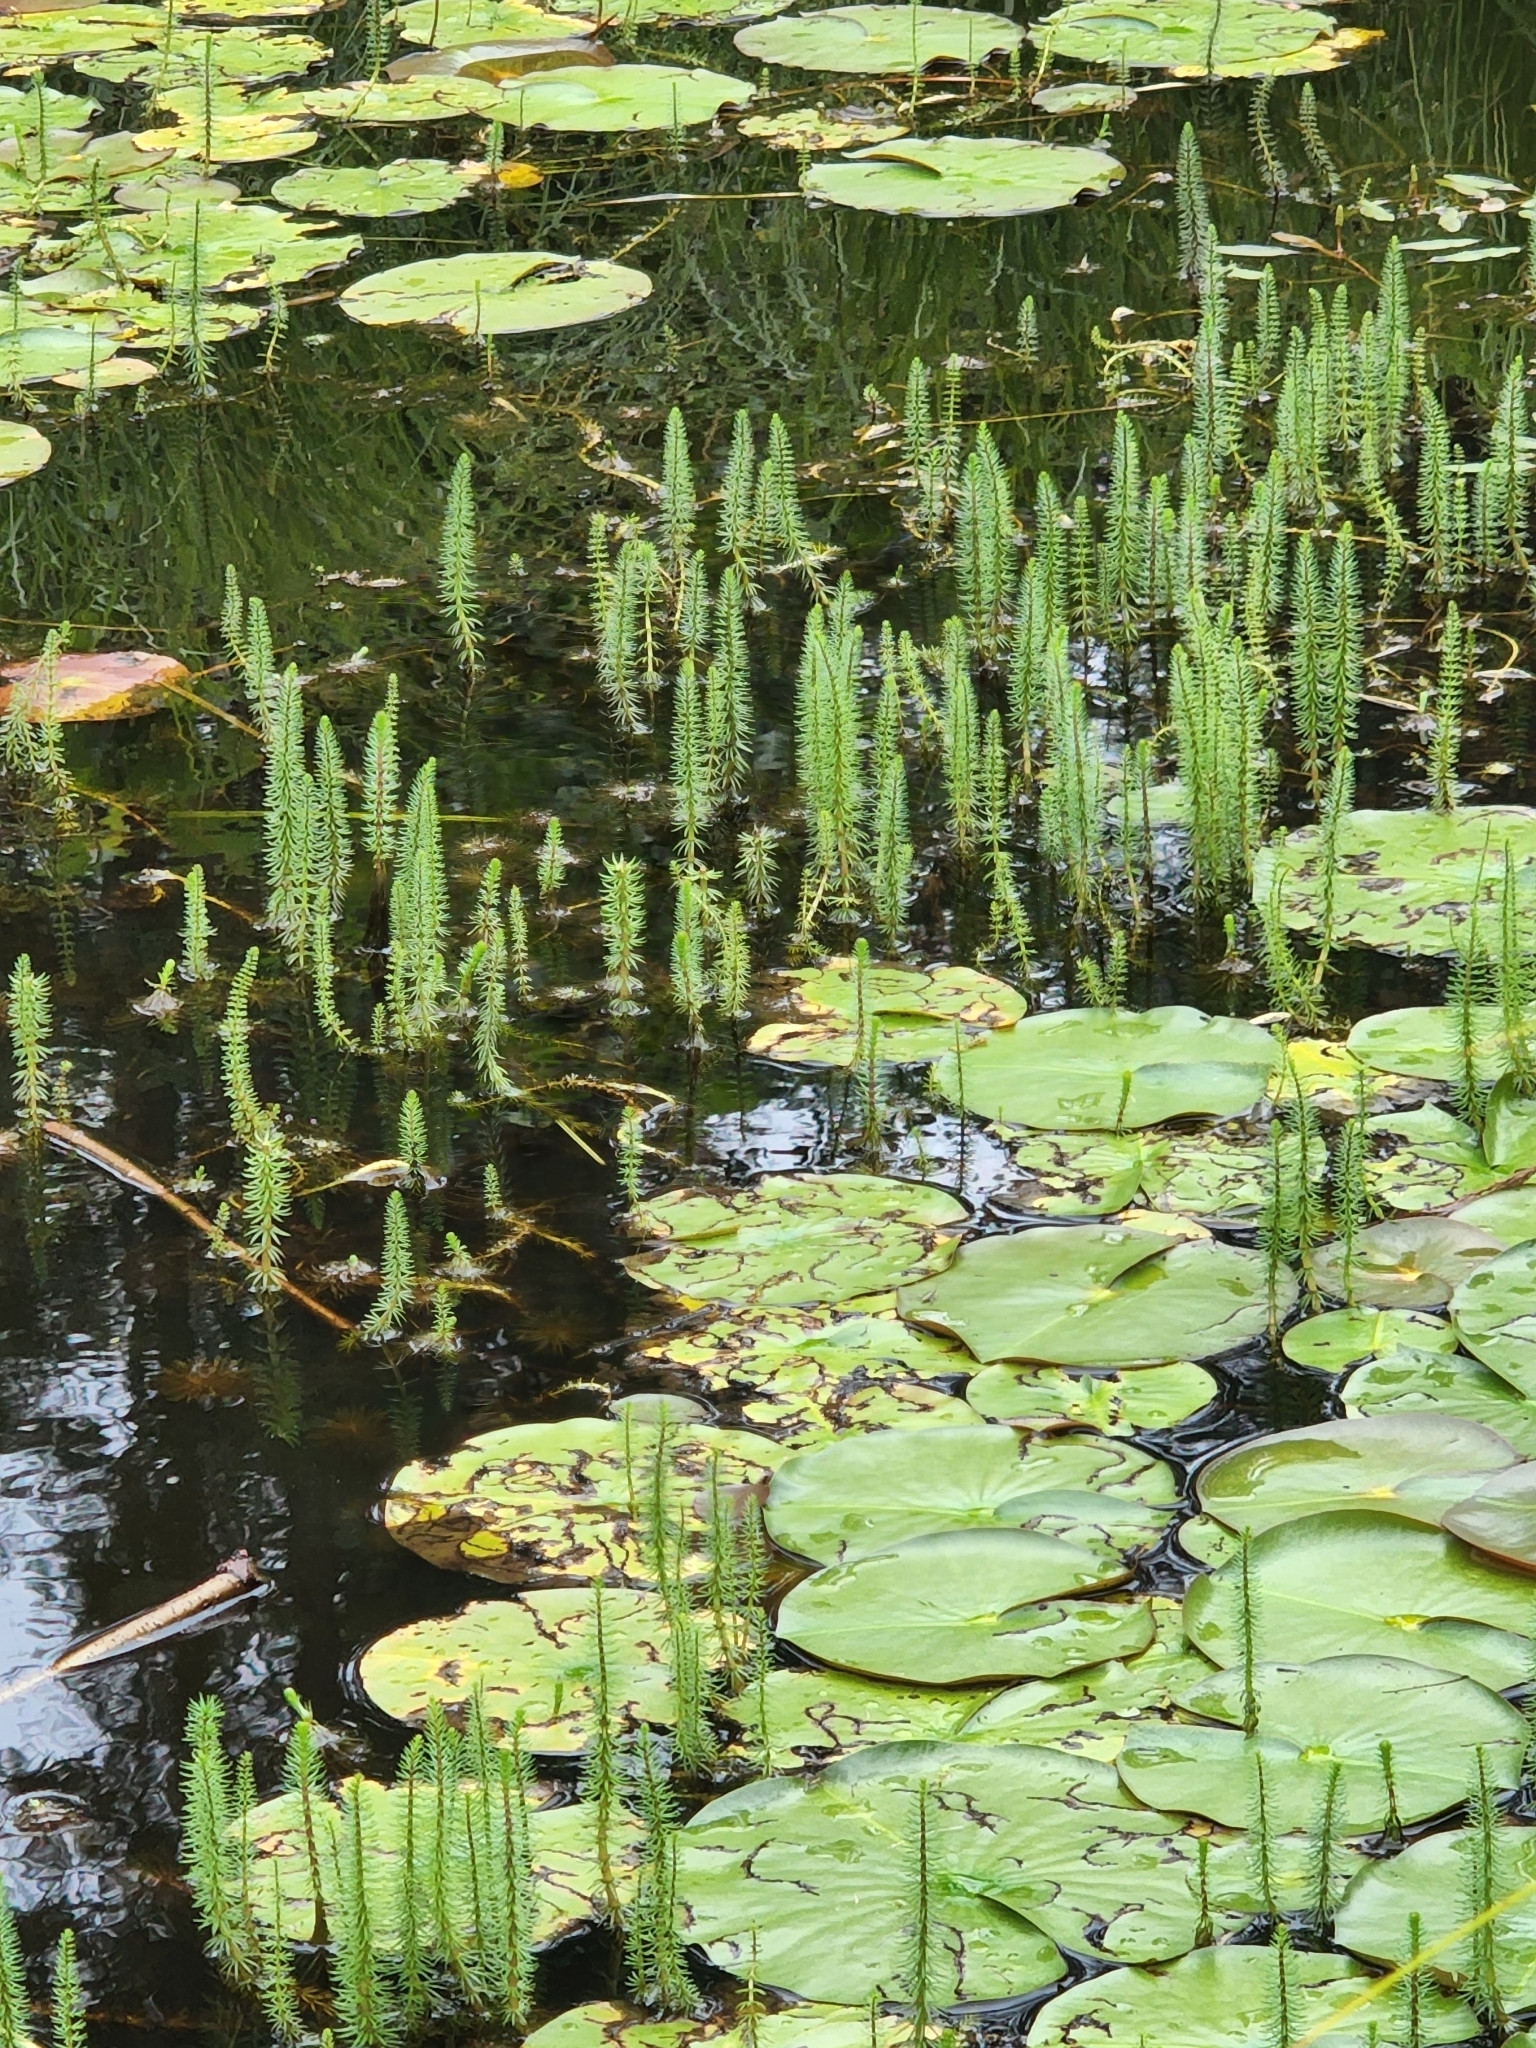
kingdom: Plantae
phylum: Tracheophyta
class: Magnoliopsida
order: Lamiales
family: Plantaginaceae
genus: Hippuris
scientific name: Hippuris vulgaris
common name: Mare's-tail
